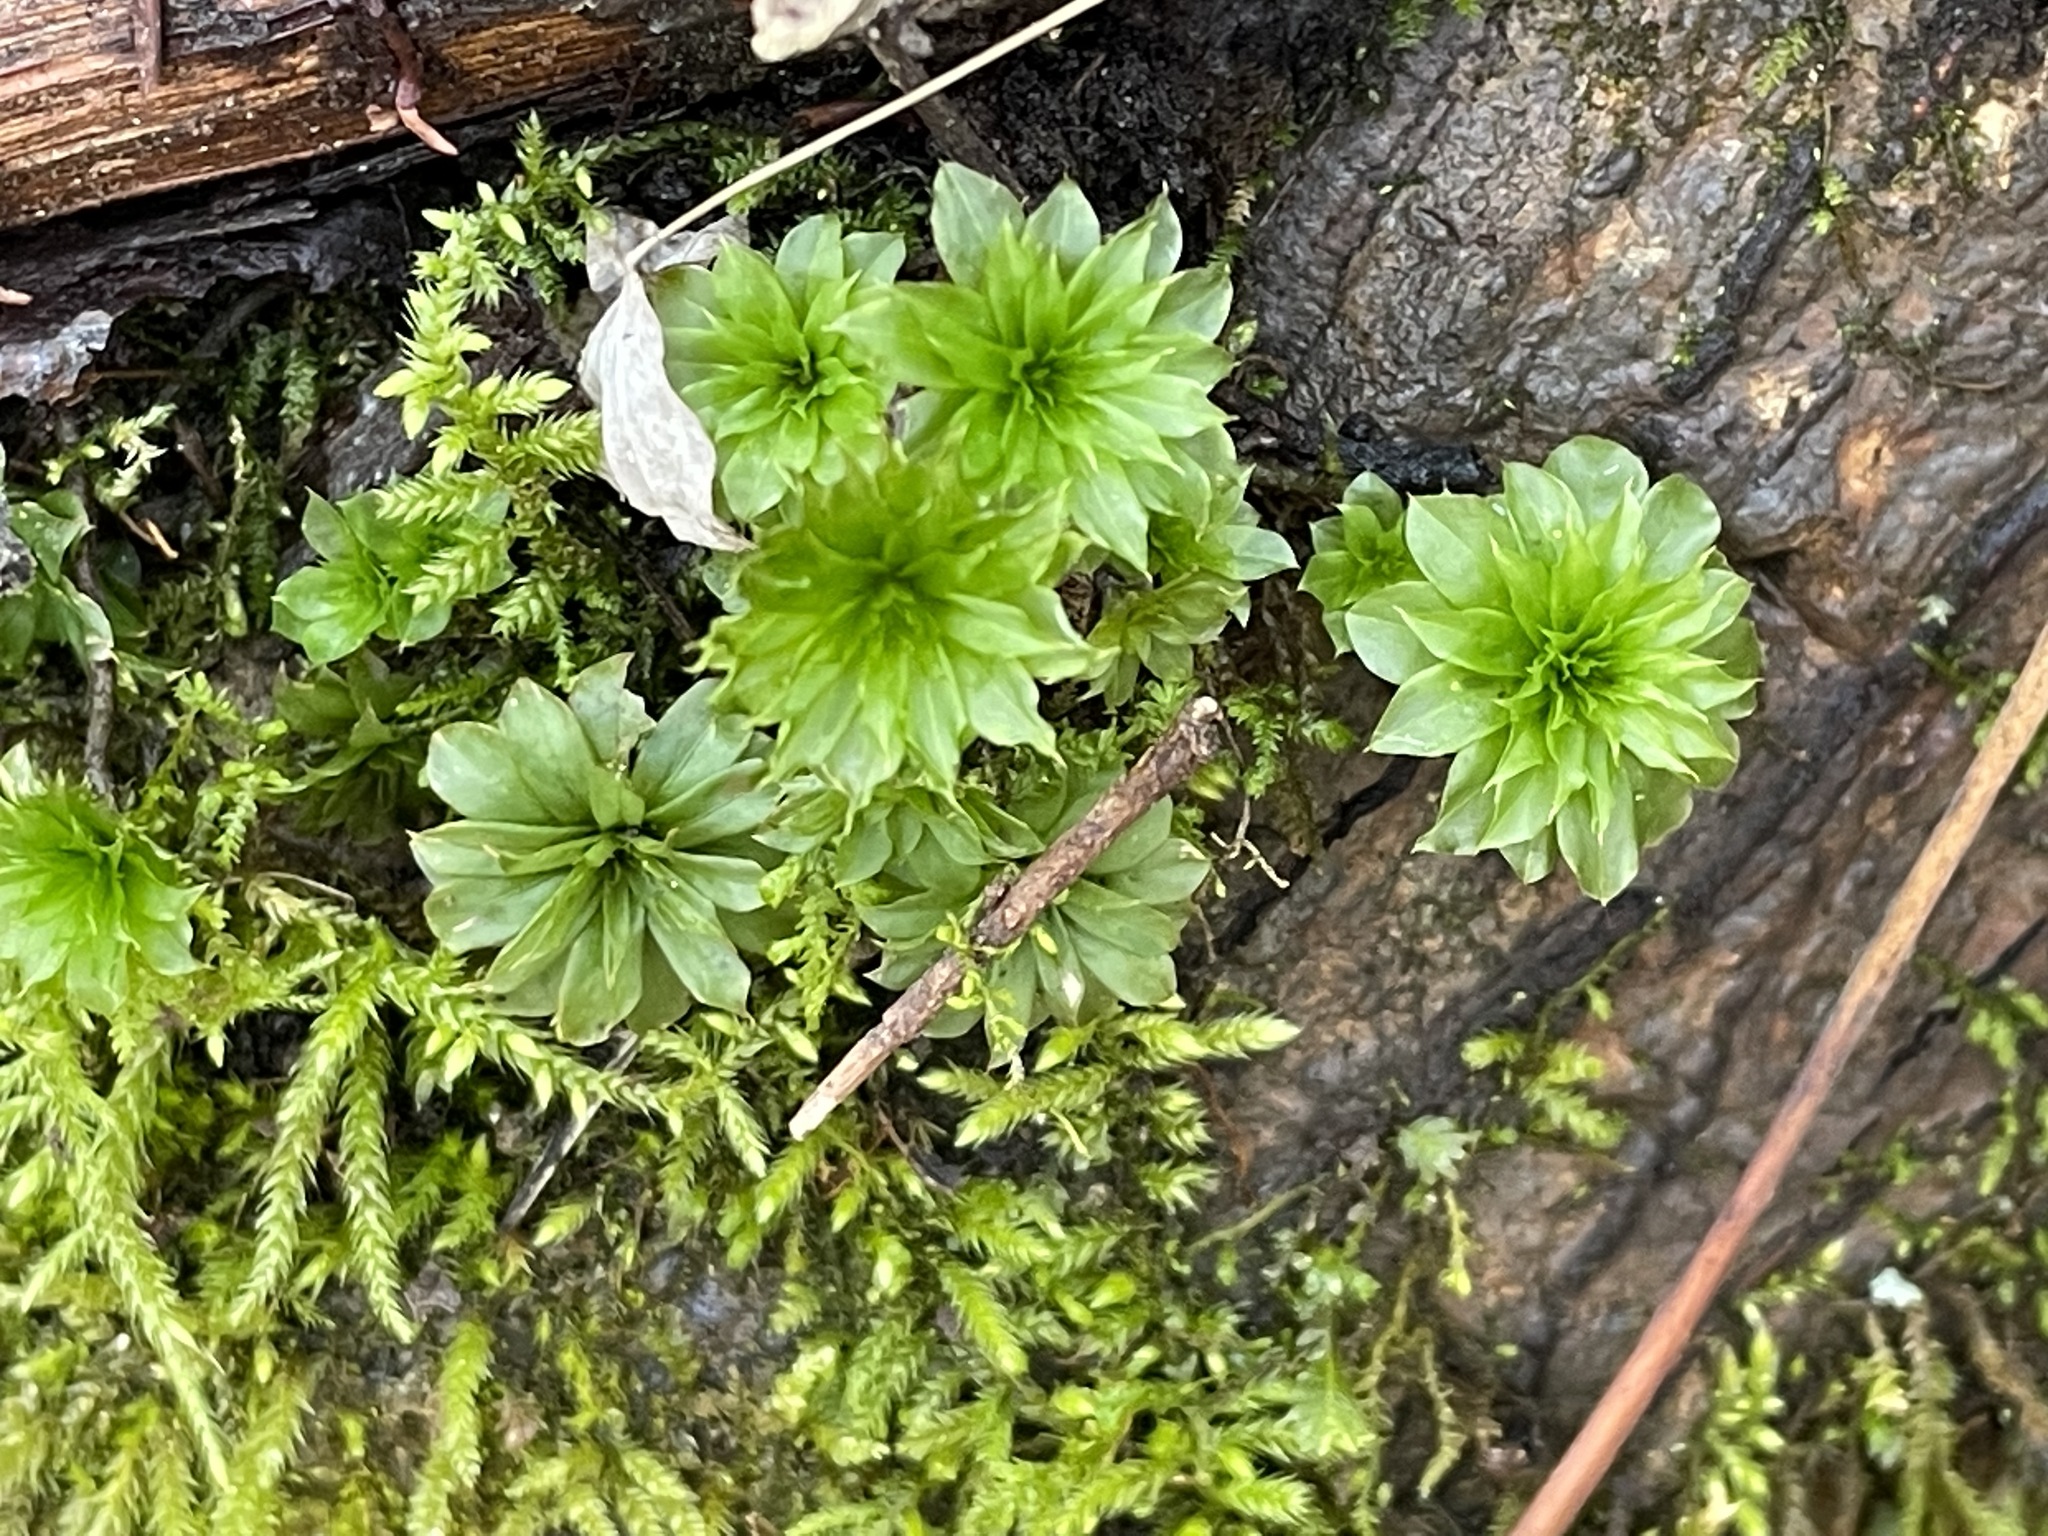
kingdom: Plantae
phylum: Bryophyta
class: Bryopsida
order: Bryales
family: Bryaceae
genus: Rhodobryum
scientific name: Rhodobryum ontariense
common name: Ontario rhodobryum moss
